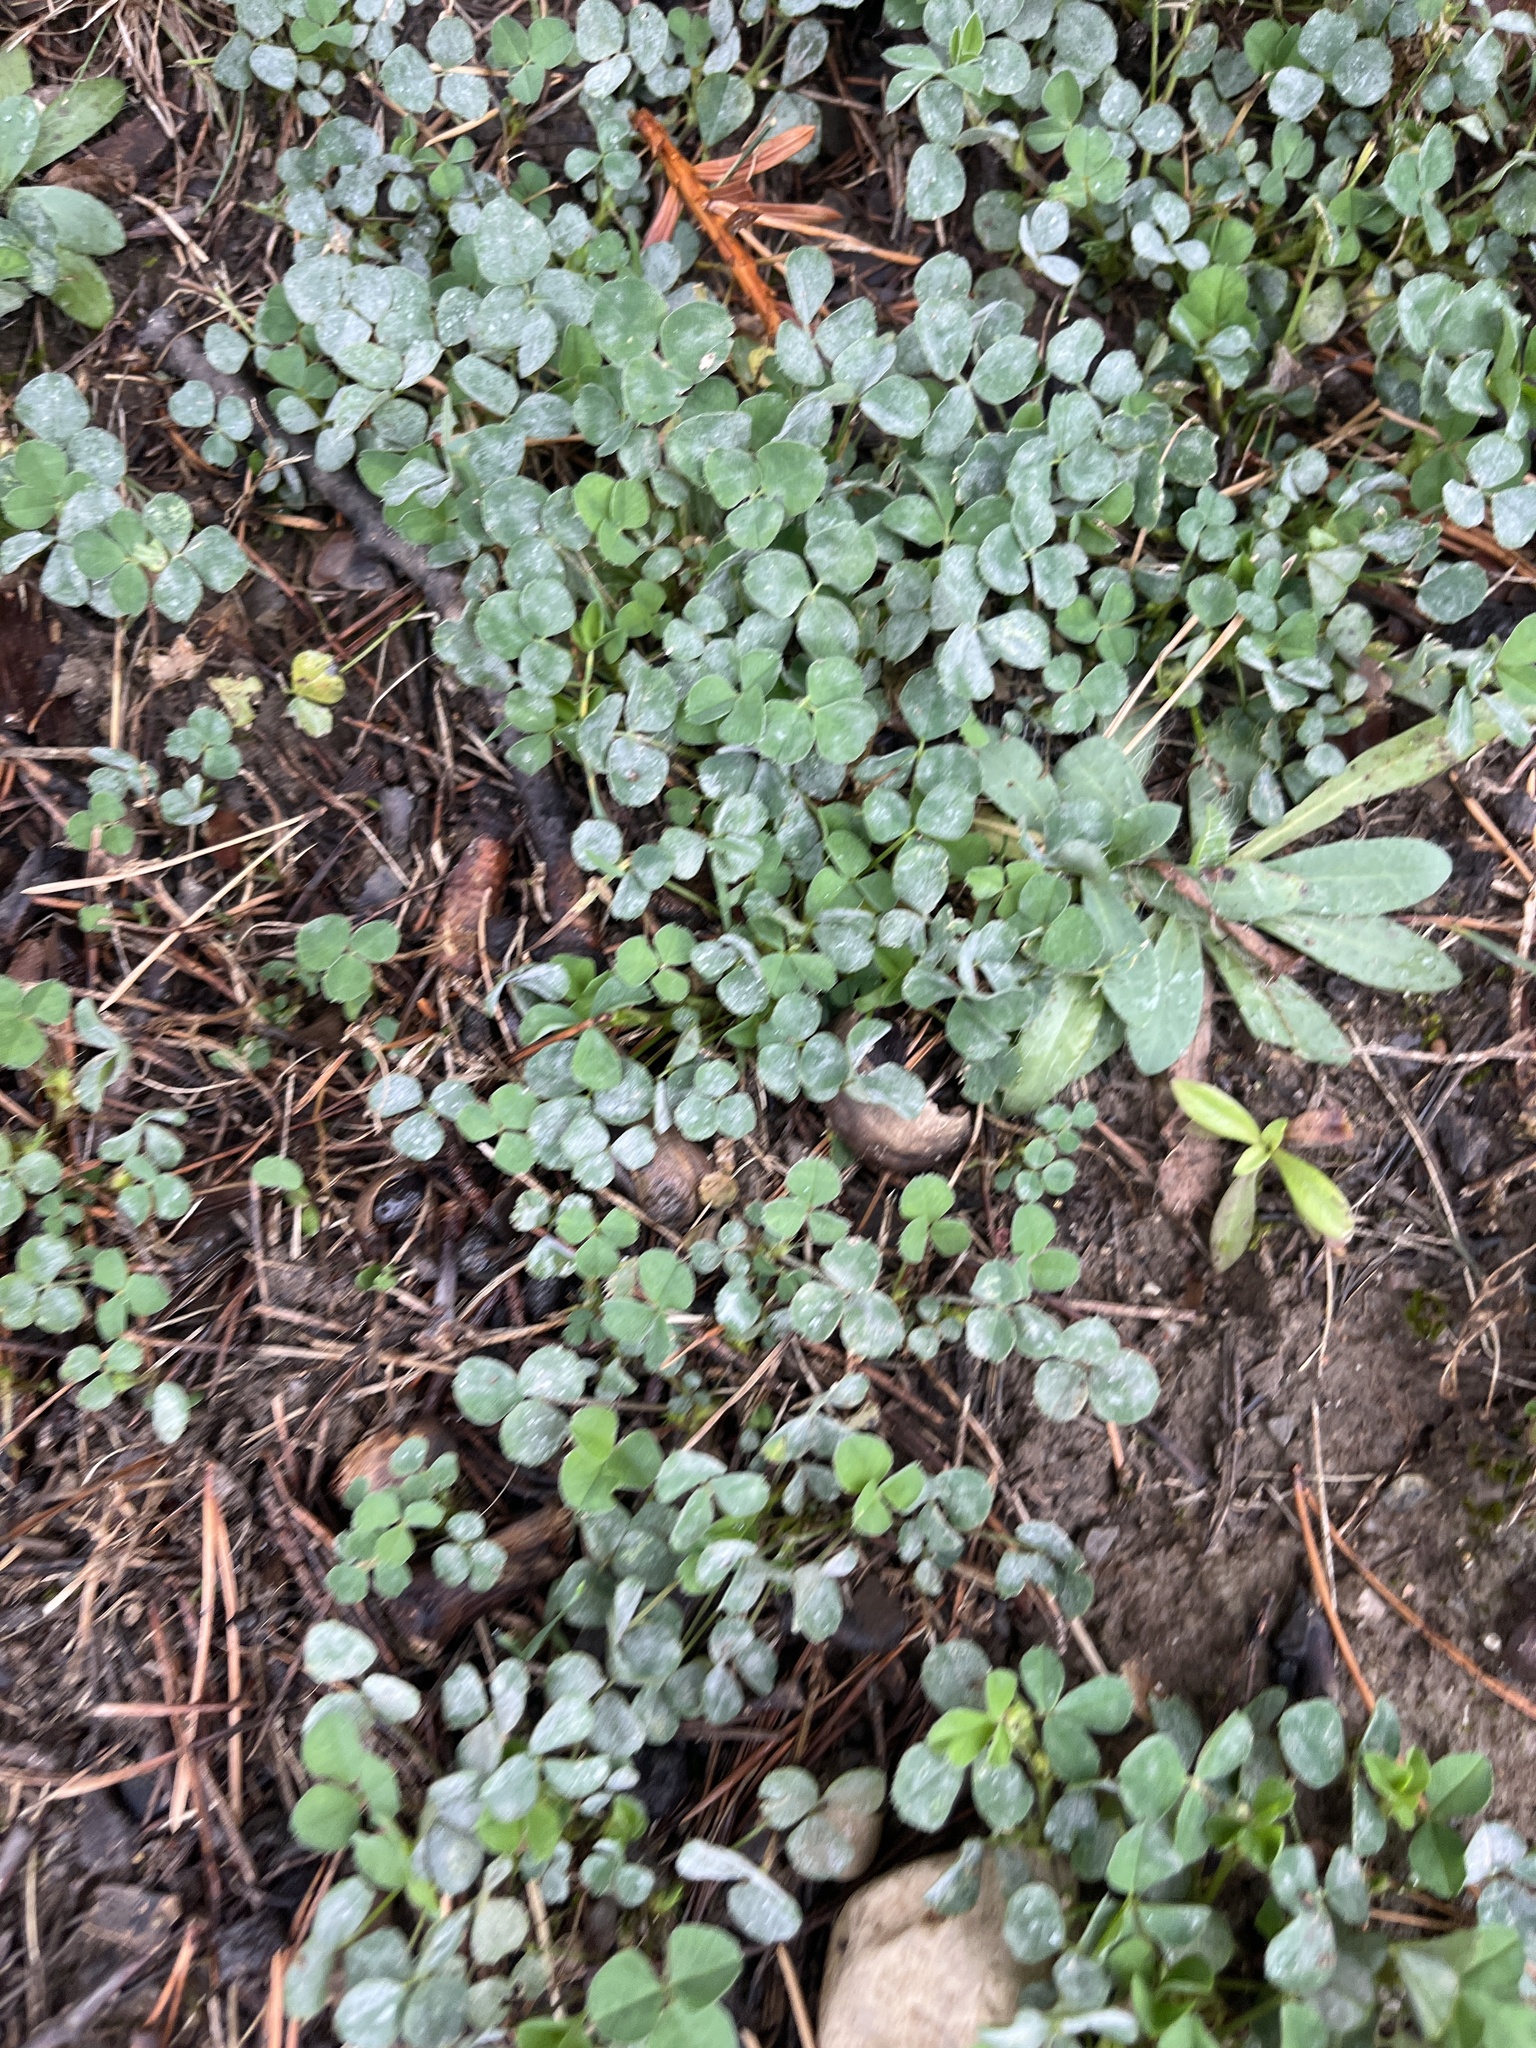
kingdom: Plantae
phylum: Tracheophyta
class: Magnoliopsida
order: Fabales
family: Fabaceae
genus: Medicago
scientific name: Medicago lupulina
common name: Black medick
